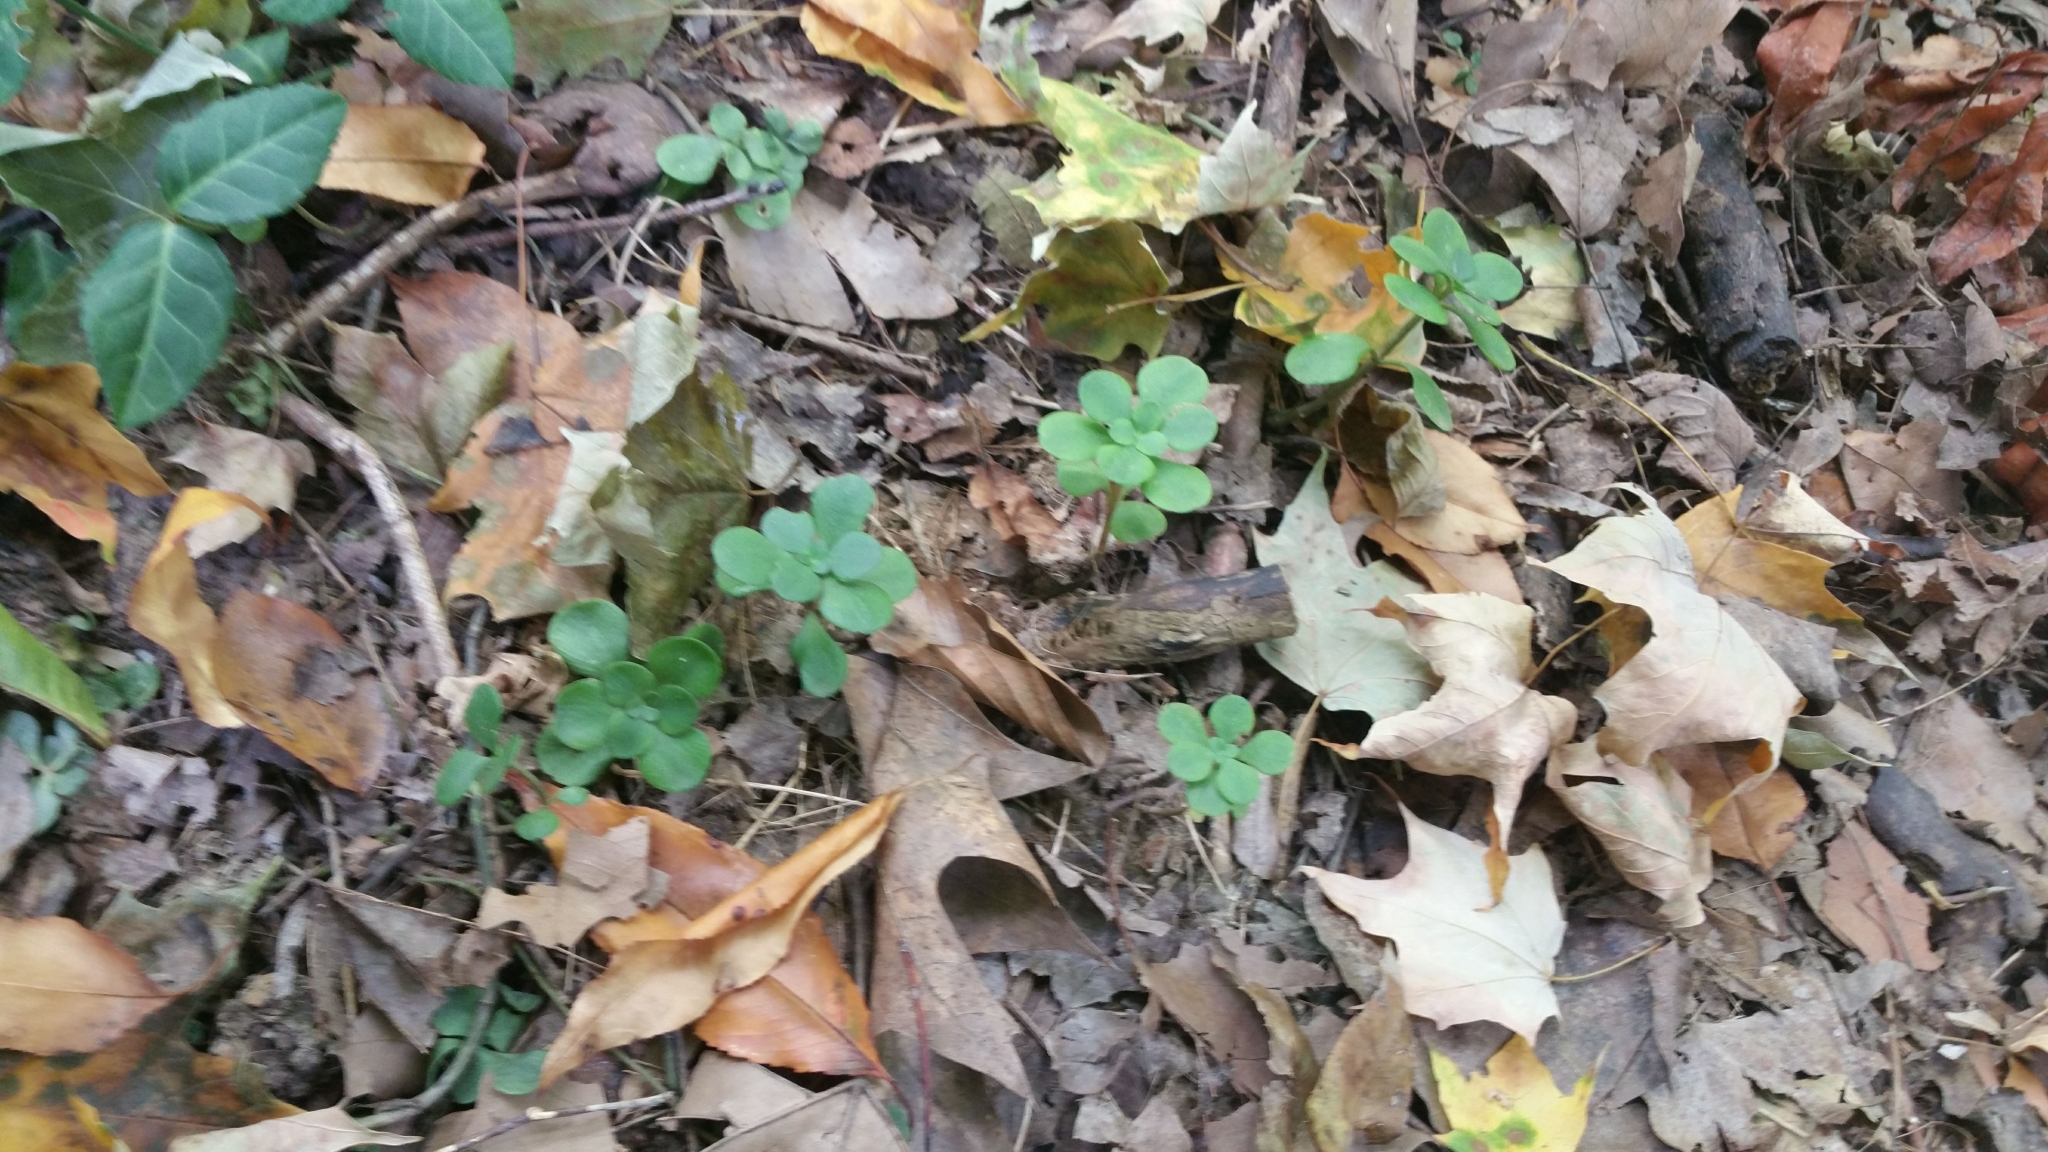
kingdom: Plantae
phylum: Tracheophyta
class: Magnoliopsida
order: Saxifragales
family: Crassulaceae
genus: Sedum
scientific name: Sedum ternatum
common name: Wild stonecrop
